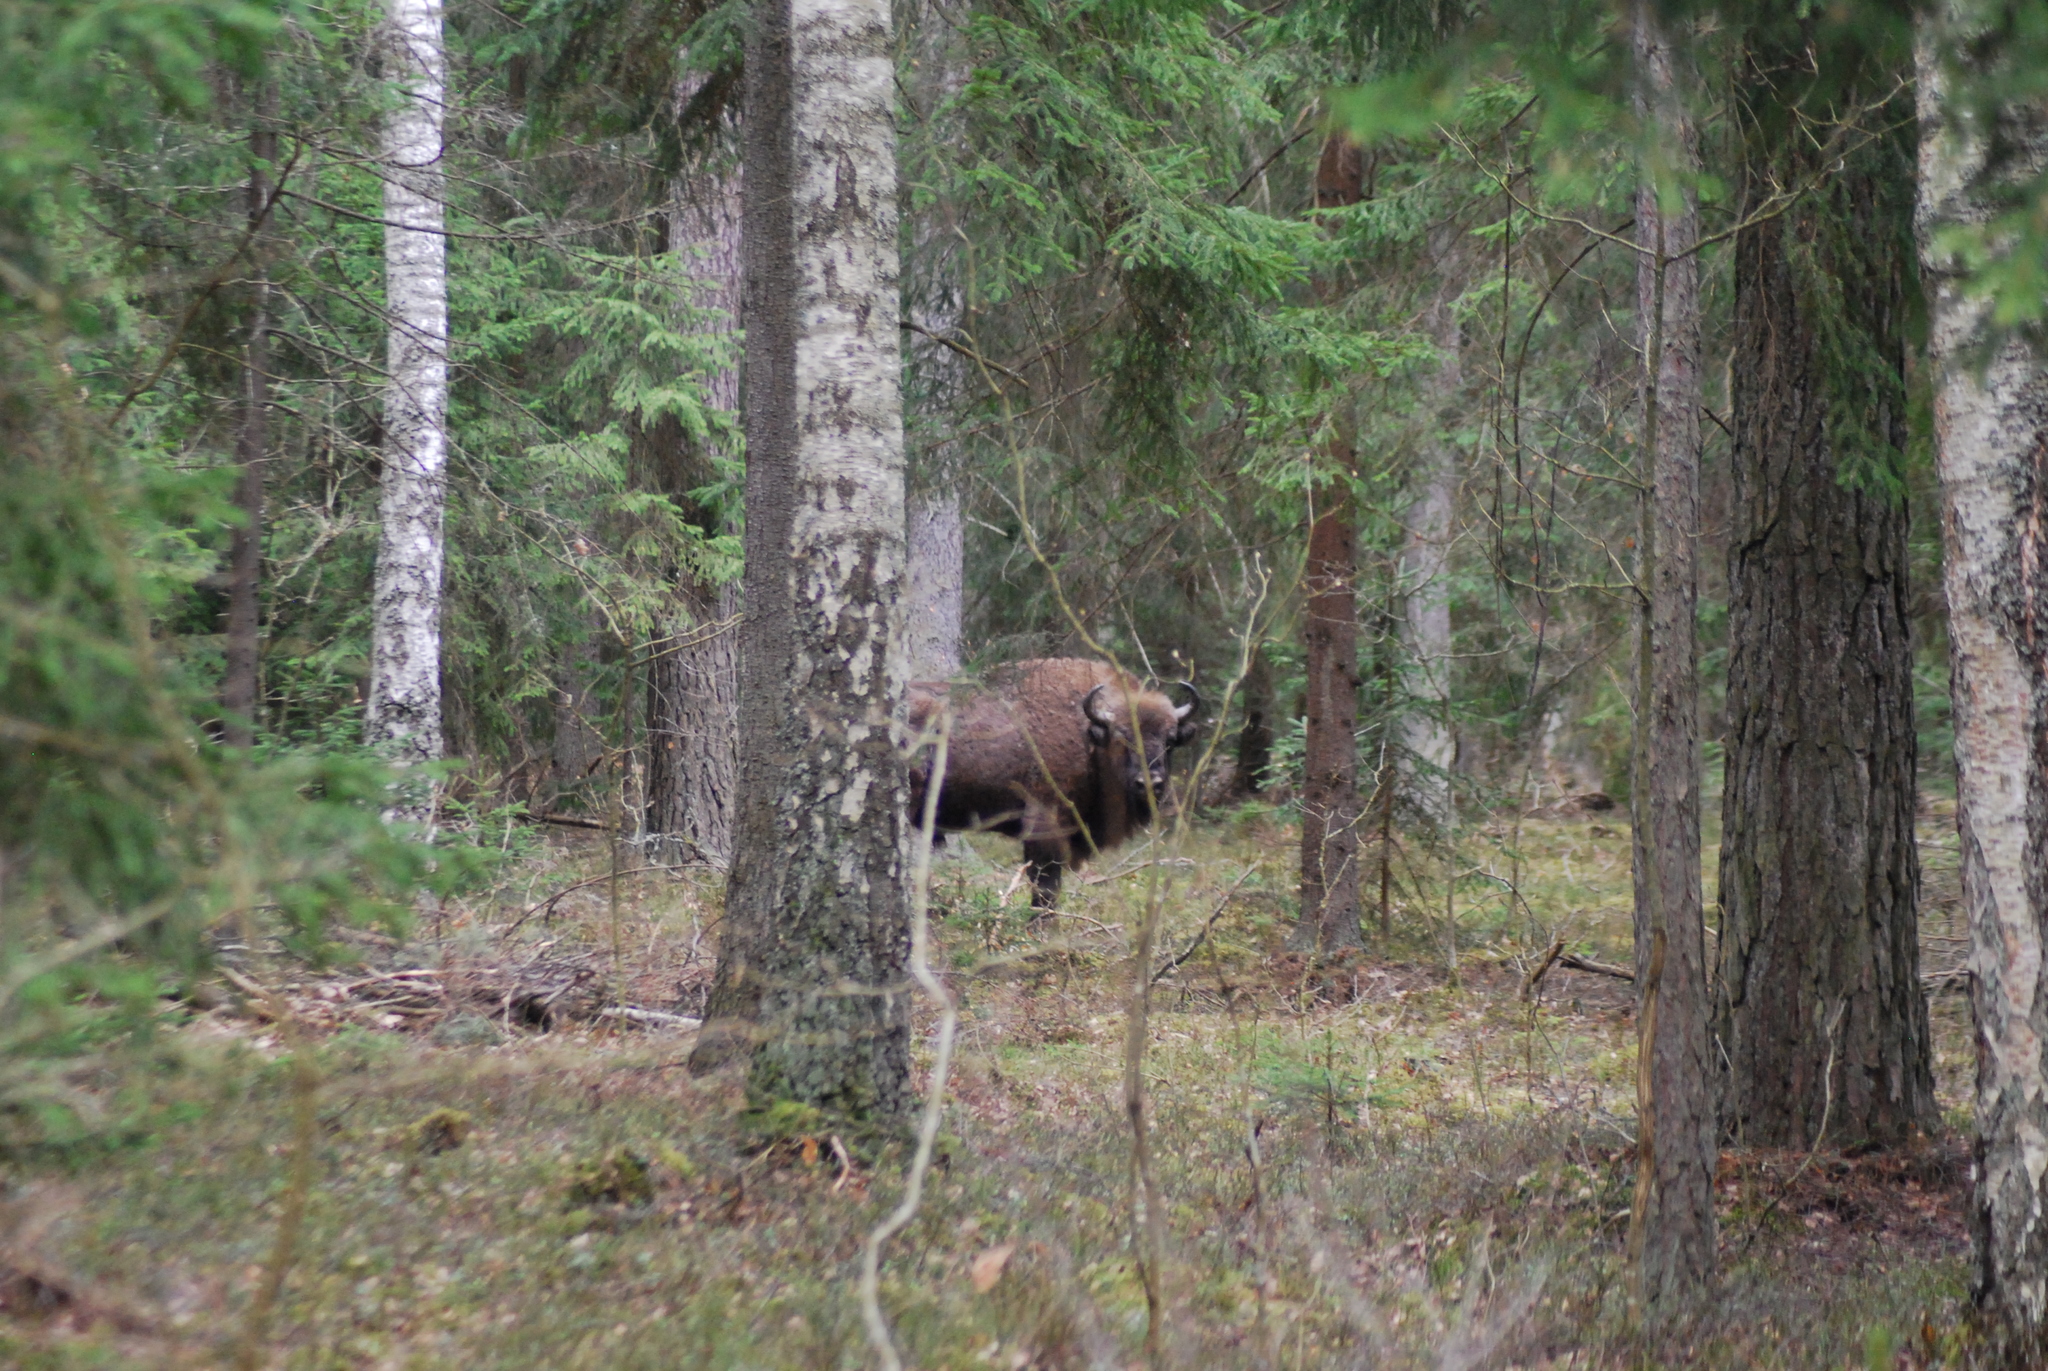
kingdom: Animalia
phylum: Chordata
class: Mammalia
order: Artiodactyla
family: Bovidae
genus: Bison
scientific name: Bison bonasus
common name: European bison
